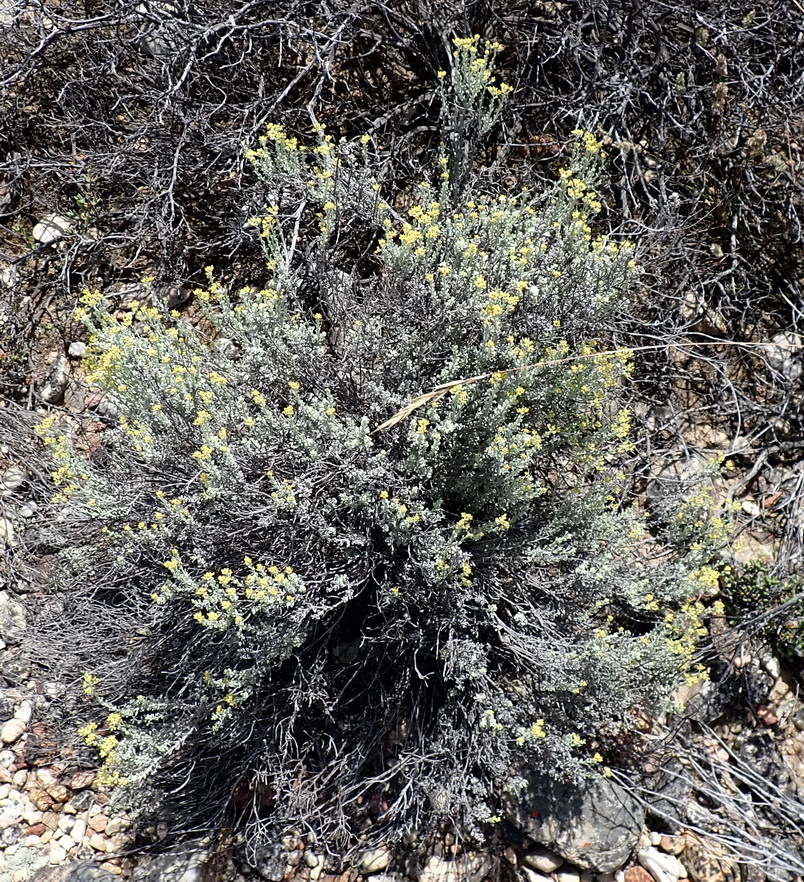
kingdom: Plantae
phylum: Tracheophyta
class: Magnoliopsida
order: Asterales
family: Asteraceae
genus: Helichrysum
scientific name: Helichrysum excisum
